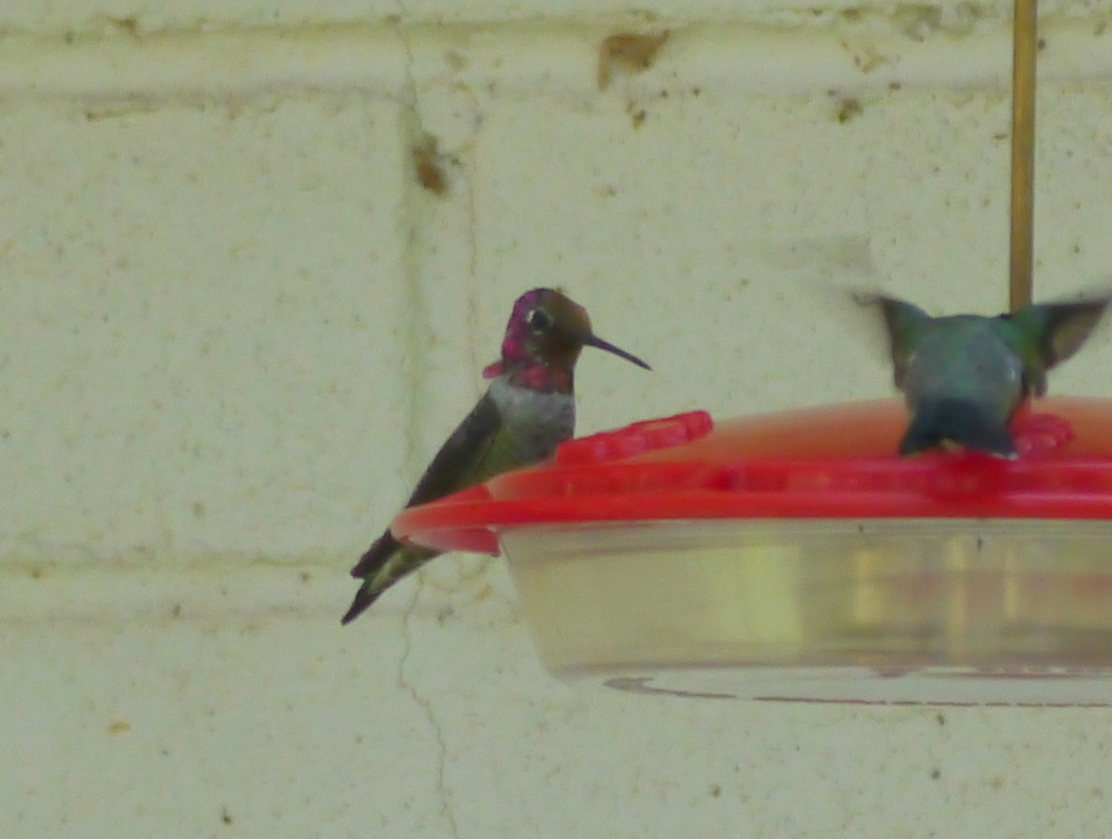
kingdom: Animalia
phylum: Chordata
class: Aves
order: Apodiformes
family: Trochilidae
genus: Calypte
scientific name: Calypte anna
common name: Anna's hummingbird
